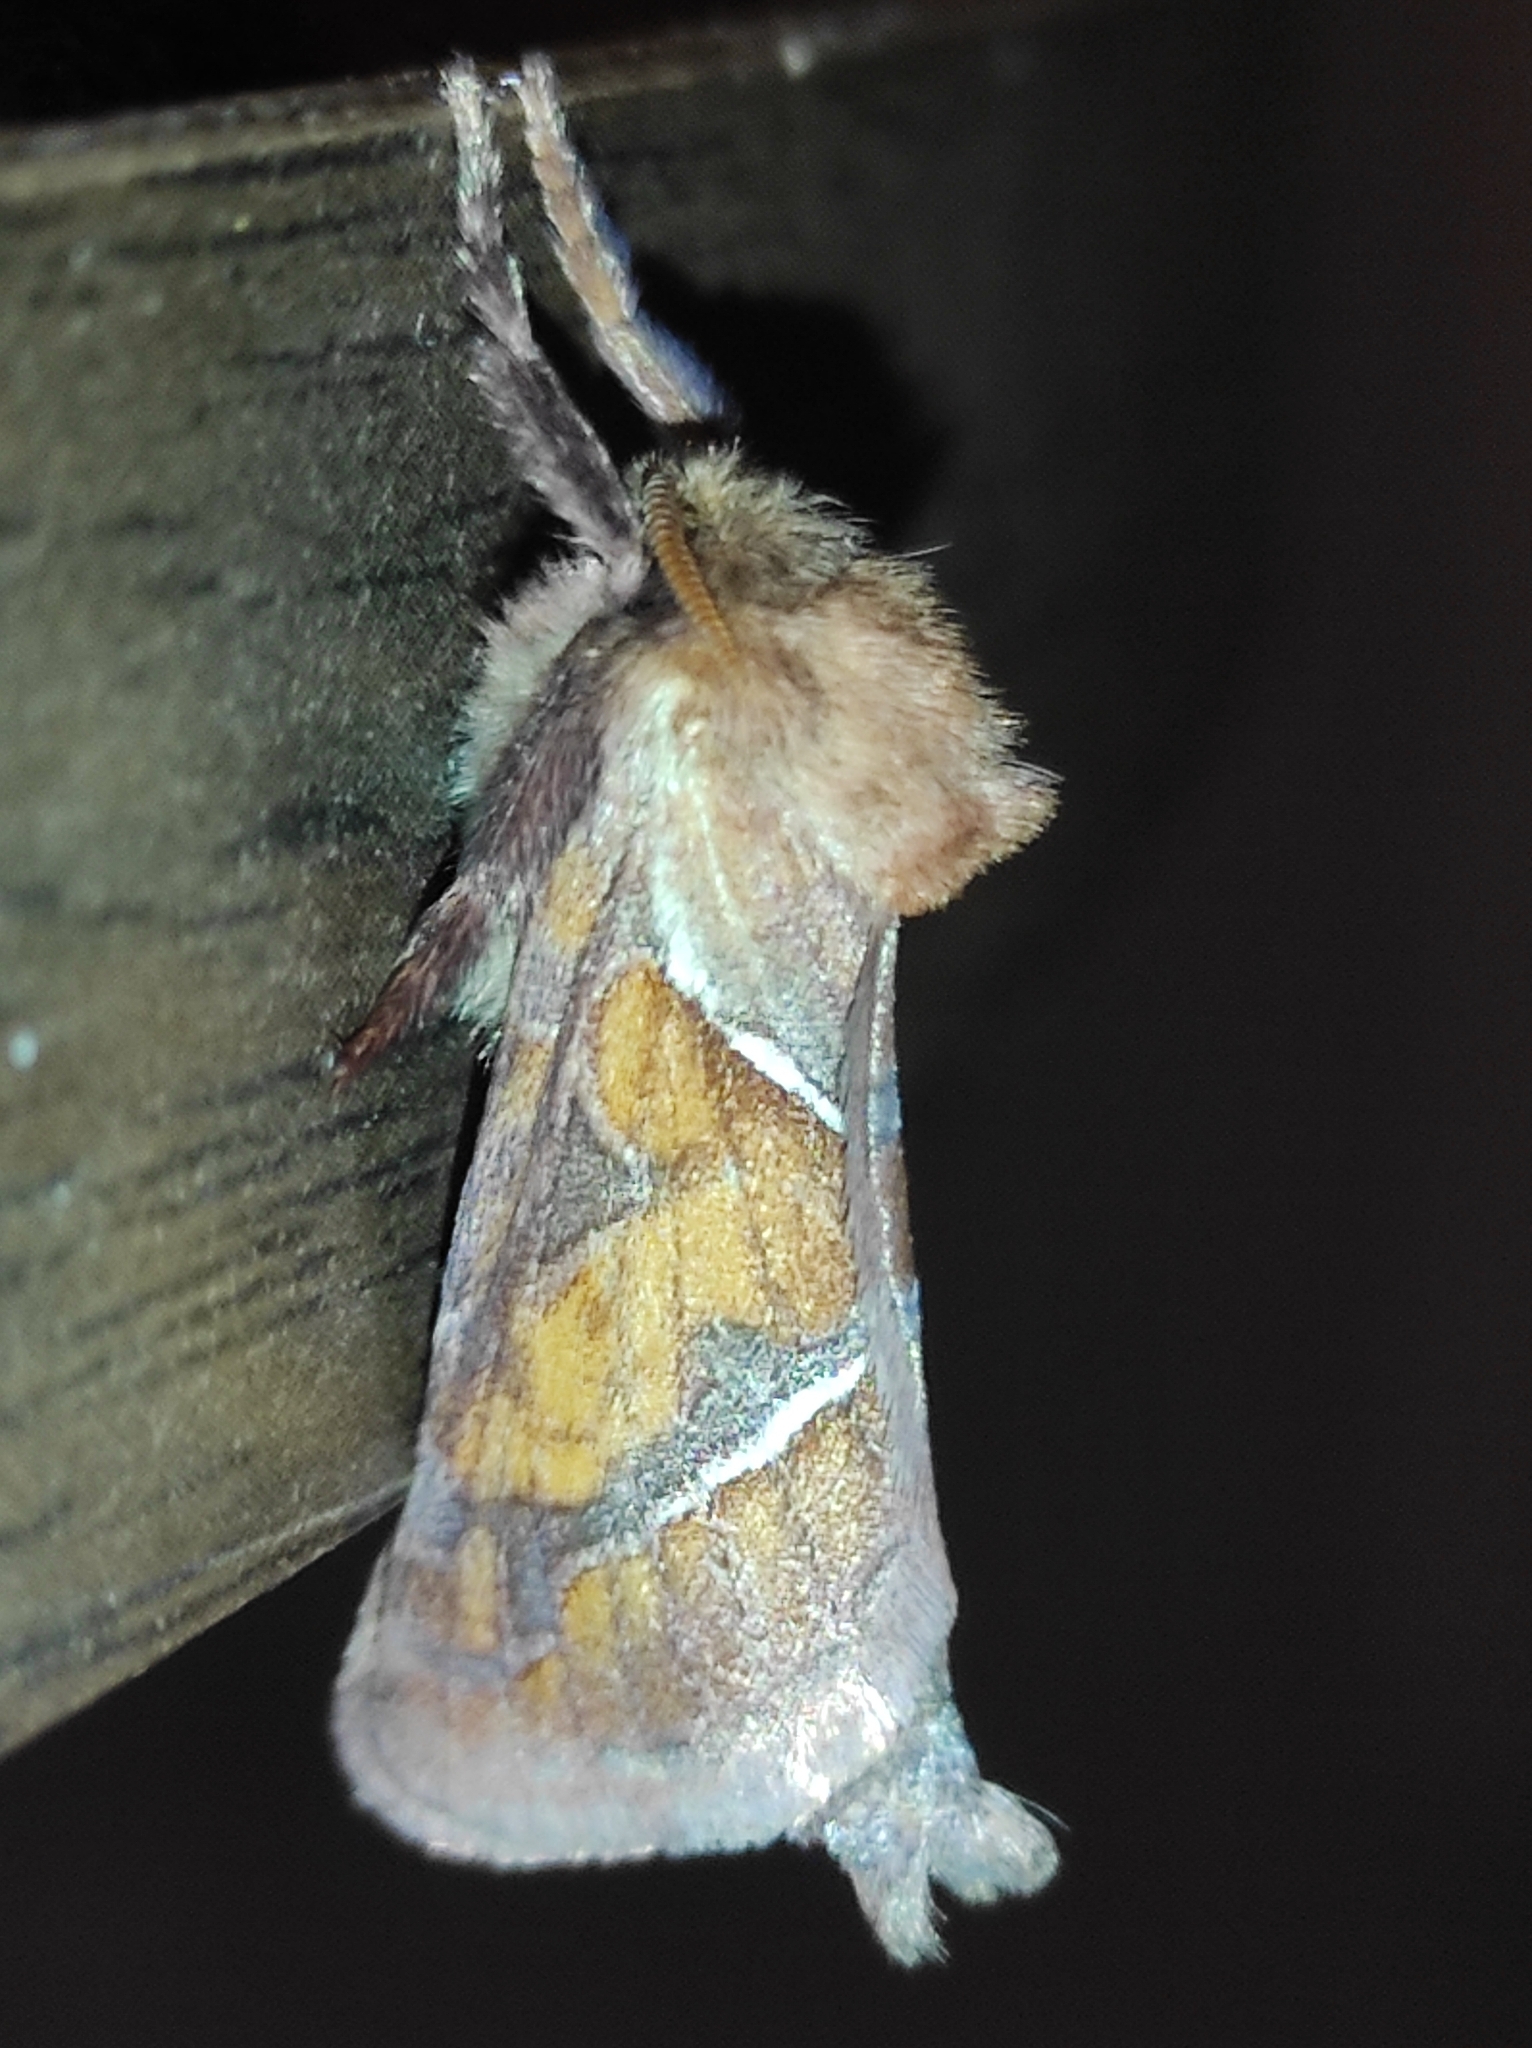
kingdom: Animalia
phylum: Arthropoda
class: Insecta
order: Lepidoptera
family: Hepialidae
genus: Triodia
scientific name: Triodia sylvina
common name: Orange swift
